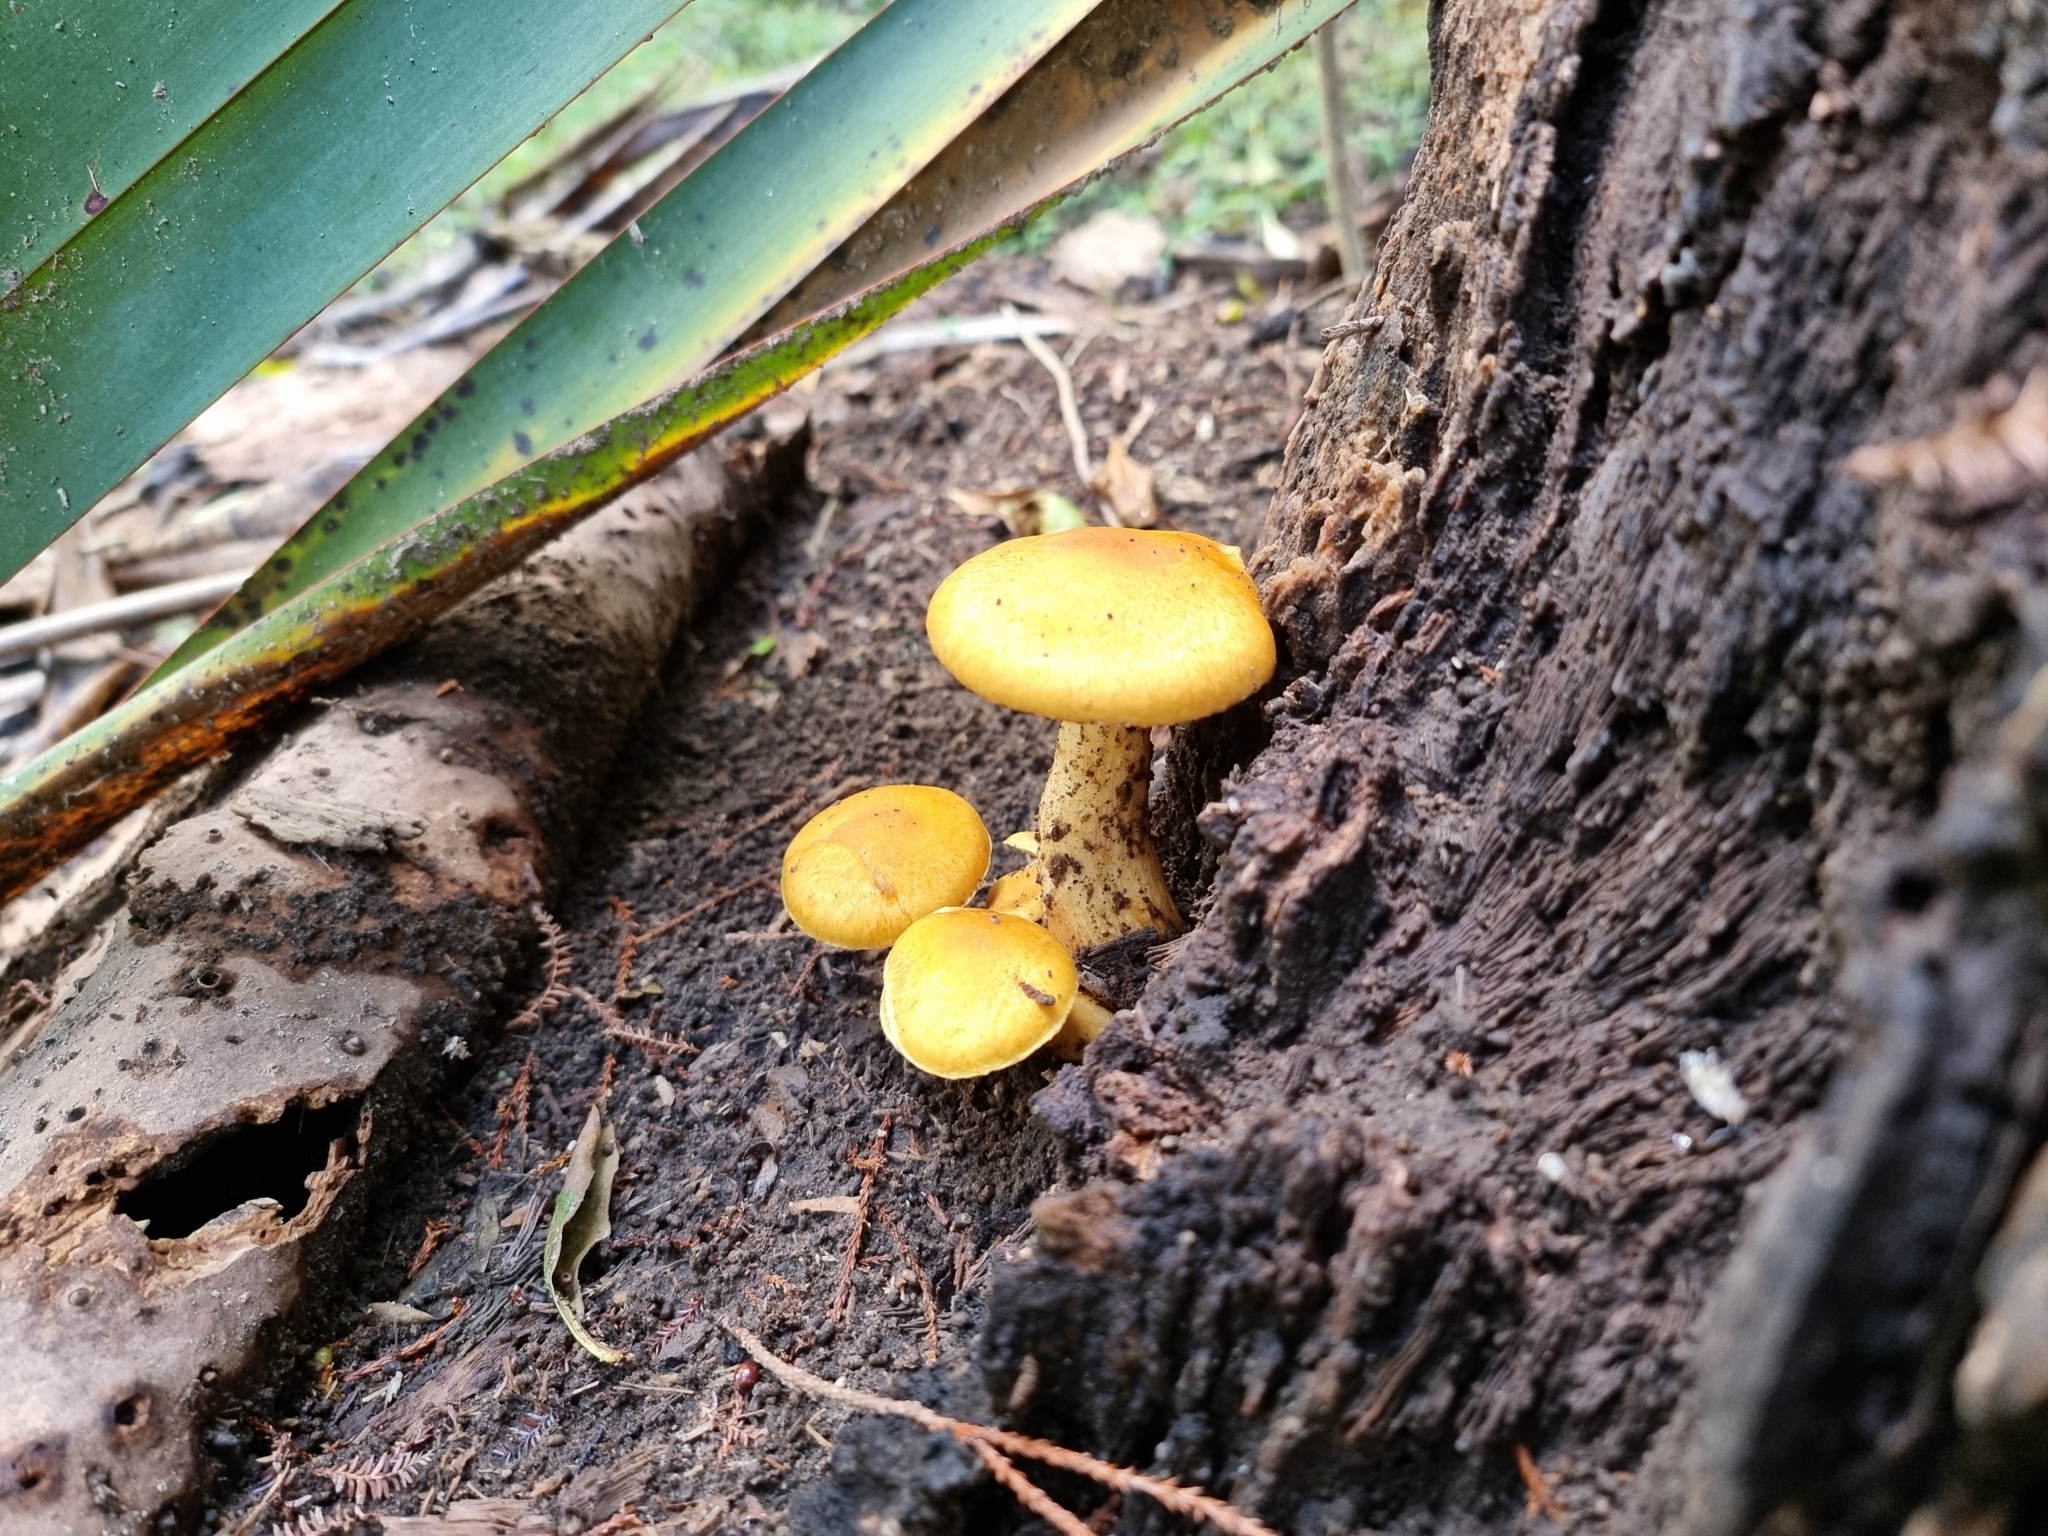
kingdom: Fungi
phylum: Basidiomycota
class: Agaricomycetes
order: Agaricales
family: Hymenogastraceae
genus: Gymnopilus
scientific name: Gymnopilus junonius
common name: Spectacular rustgill
